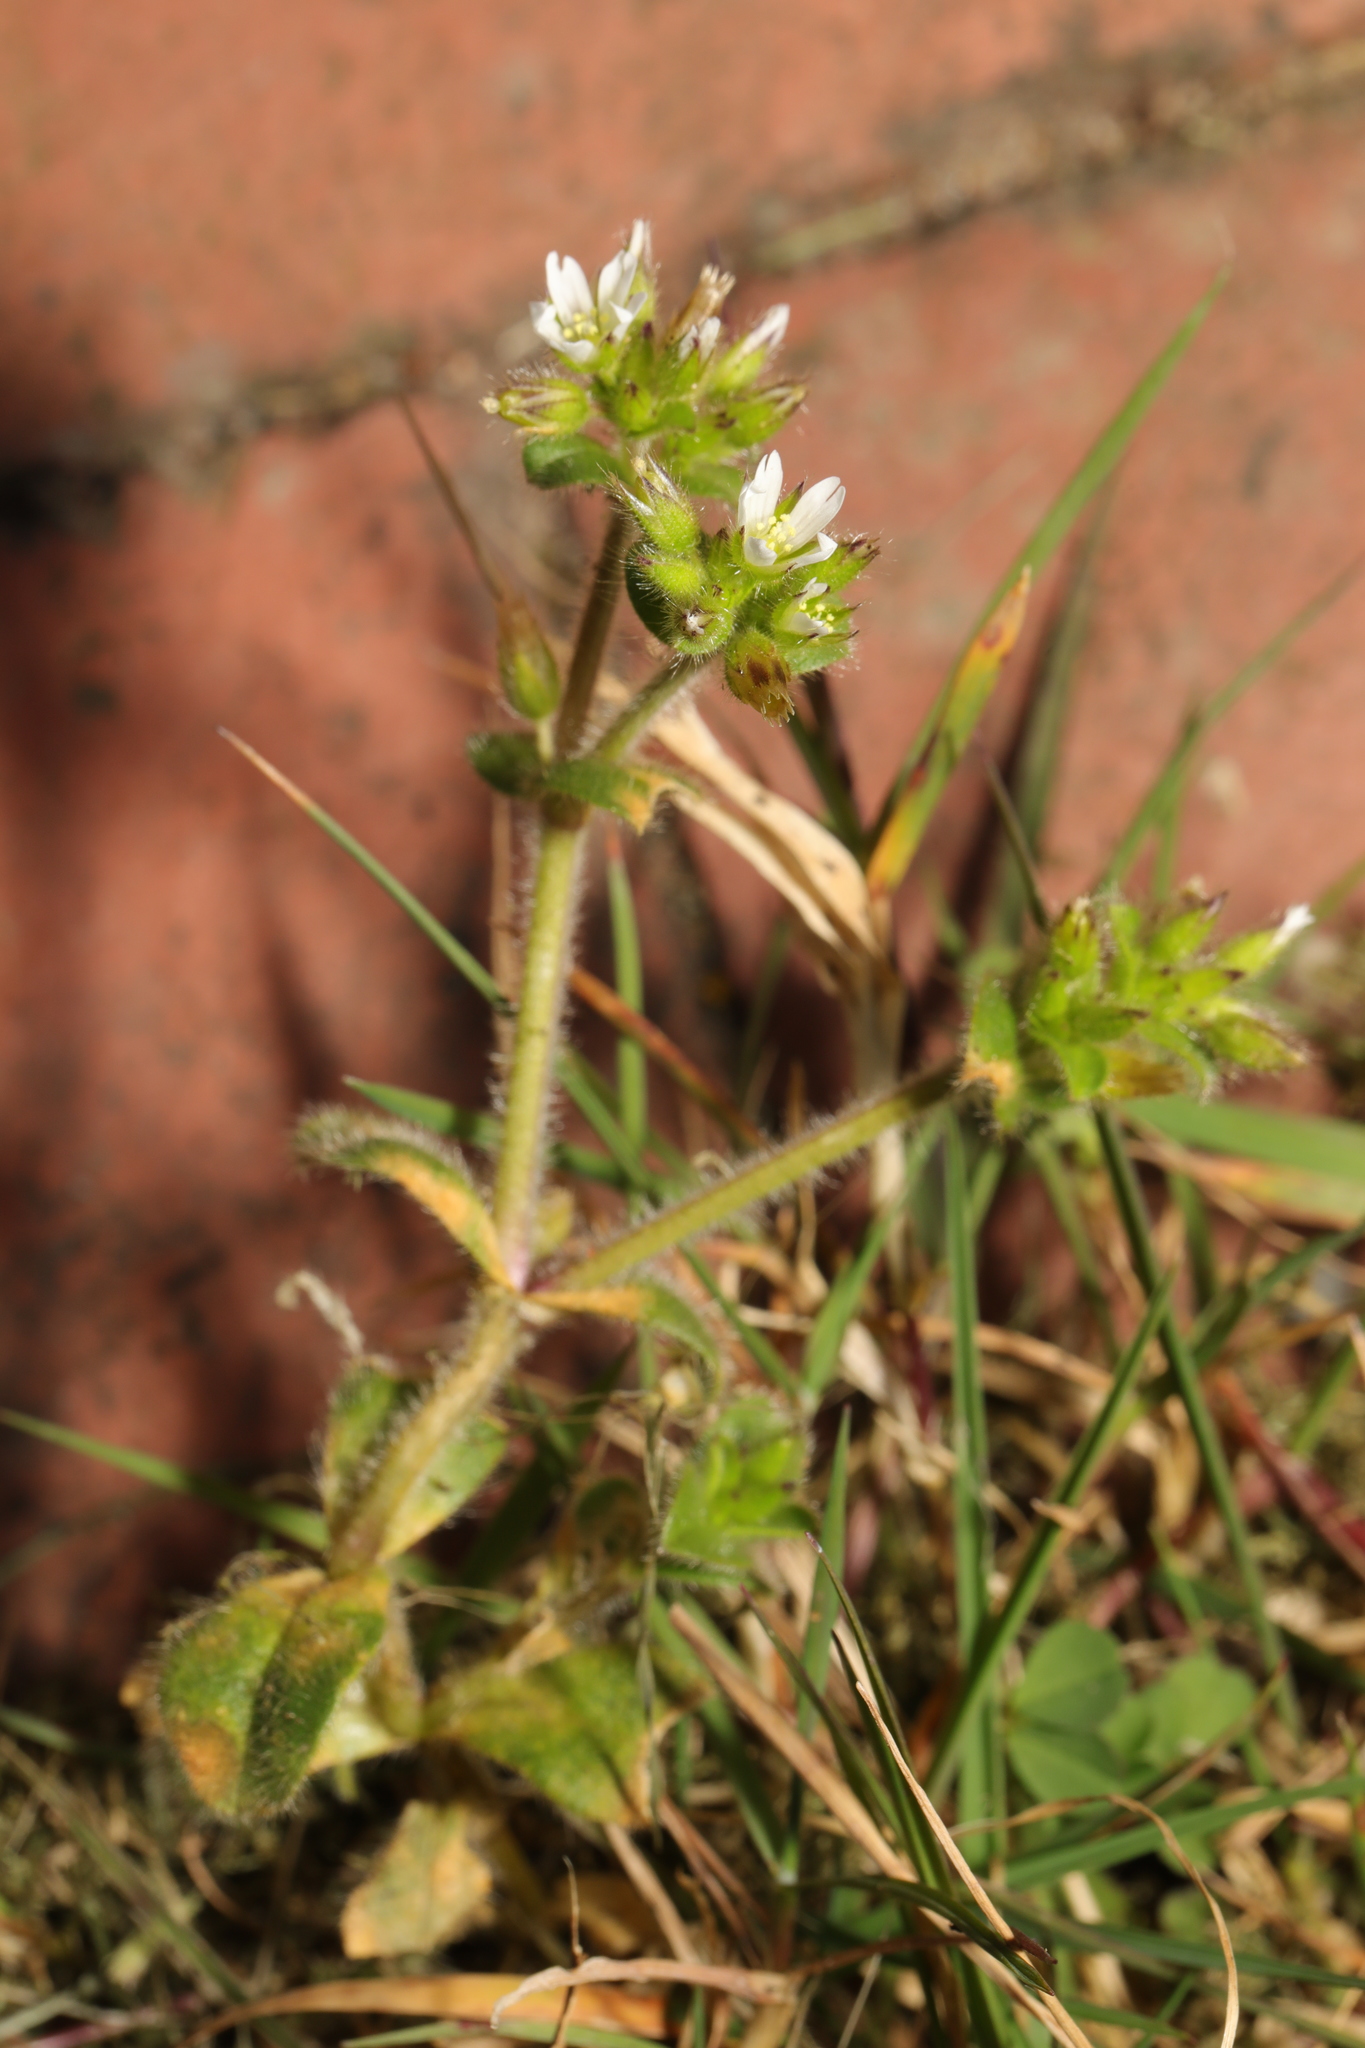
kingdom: Plantae
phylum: Tracheophyta
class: Magnoliopsida
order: Caryophyllales
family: Caryophyllaceae
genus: Cerastium
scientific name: Cerastium glomeratum
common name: Sticky chickweed
